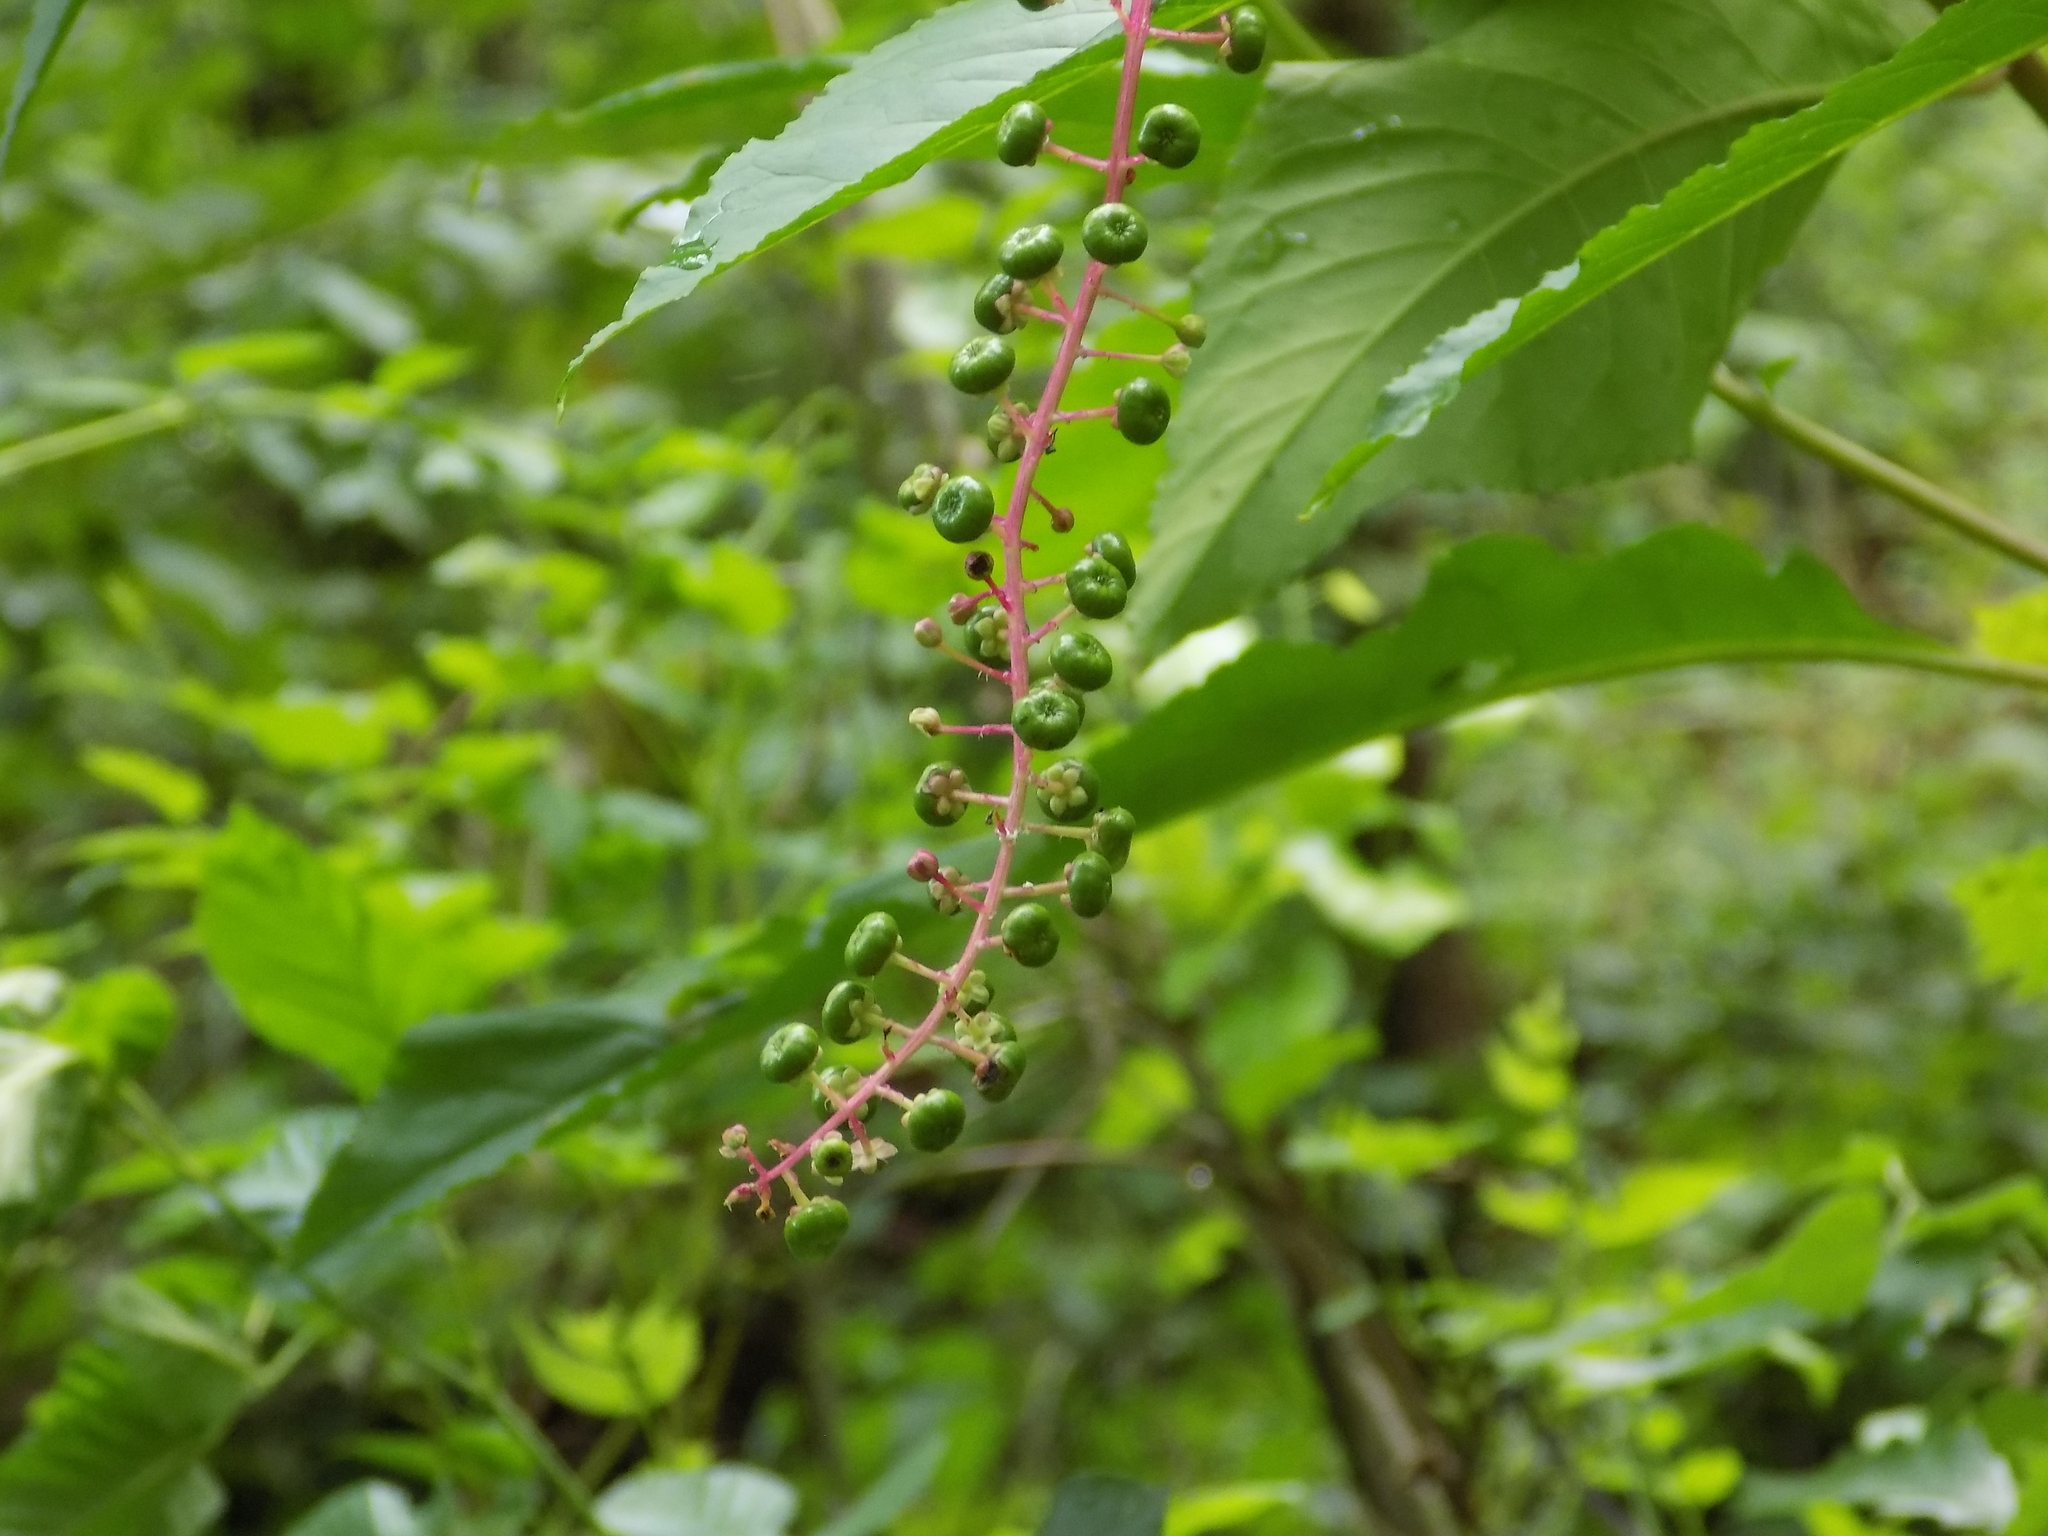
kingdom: Plantae
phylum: Tracheophyta
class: Magnoliopsida
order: Caryophyllales
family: Phytolaccaceae
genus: Phytolacca
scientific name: Phytolacca americana
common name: American pokeweed
